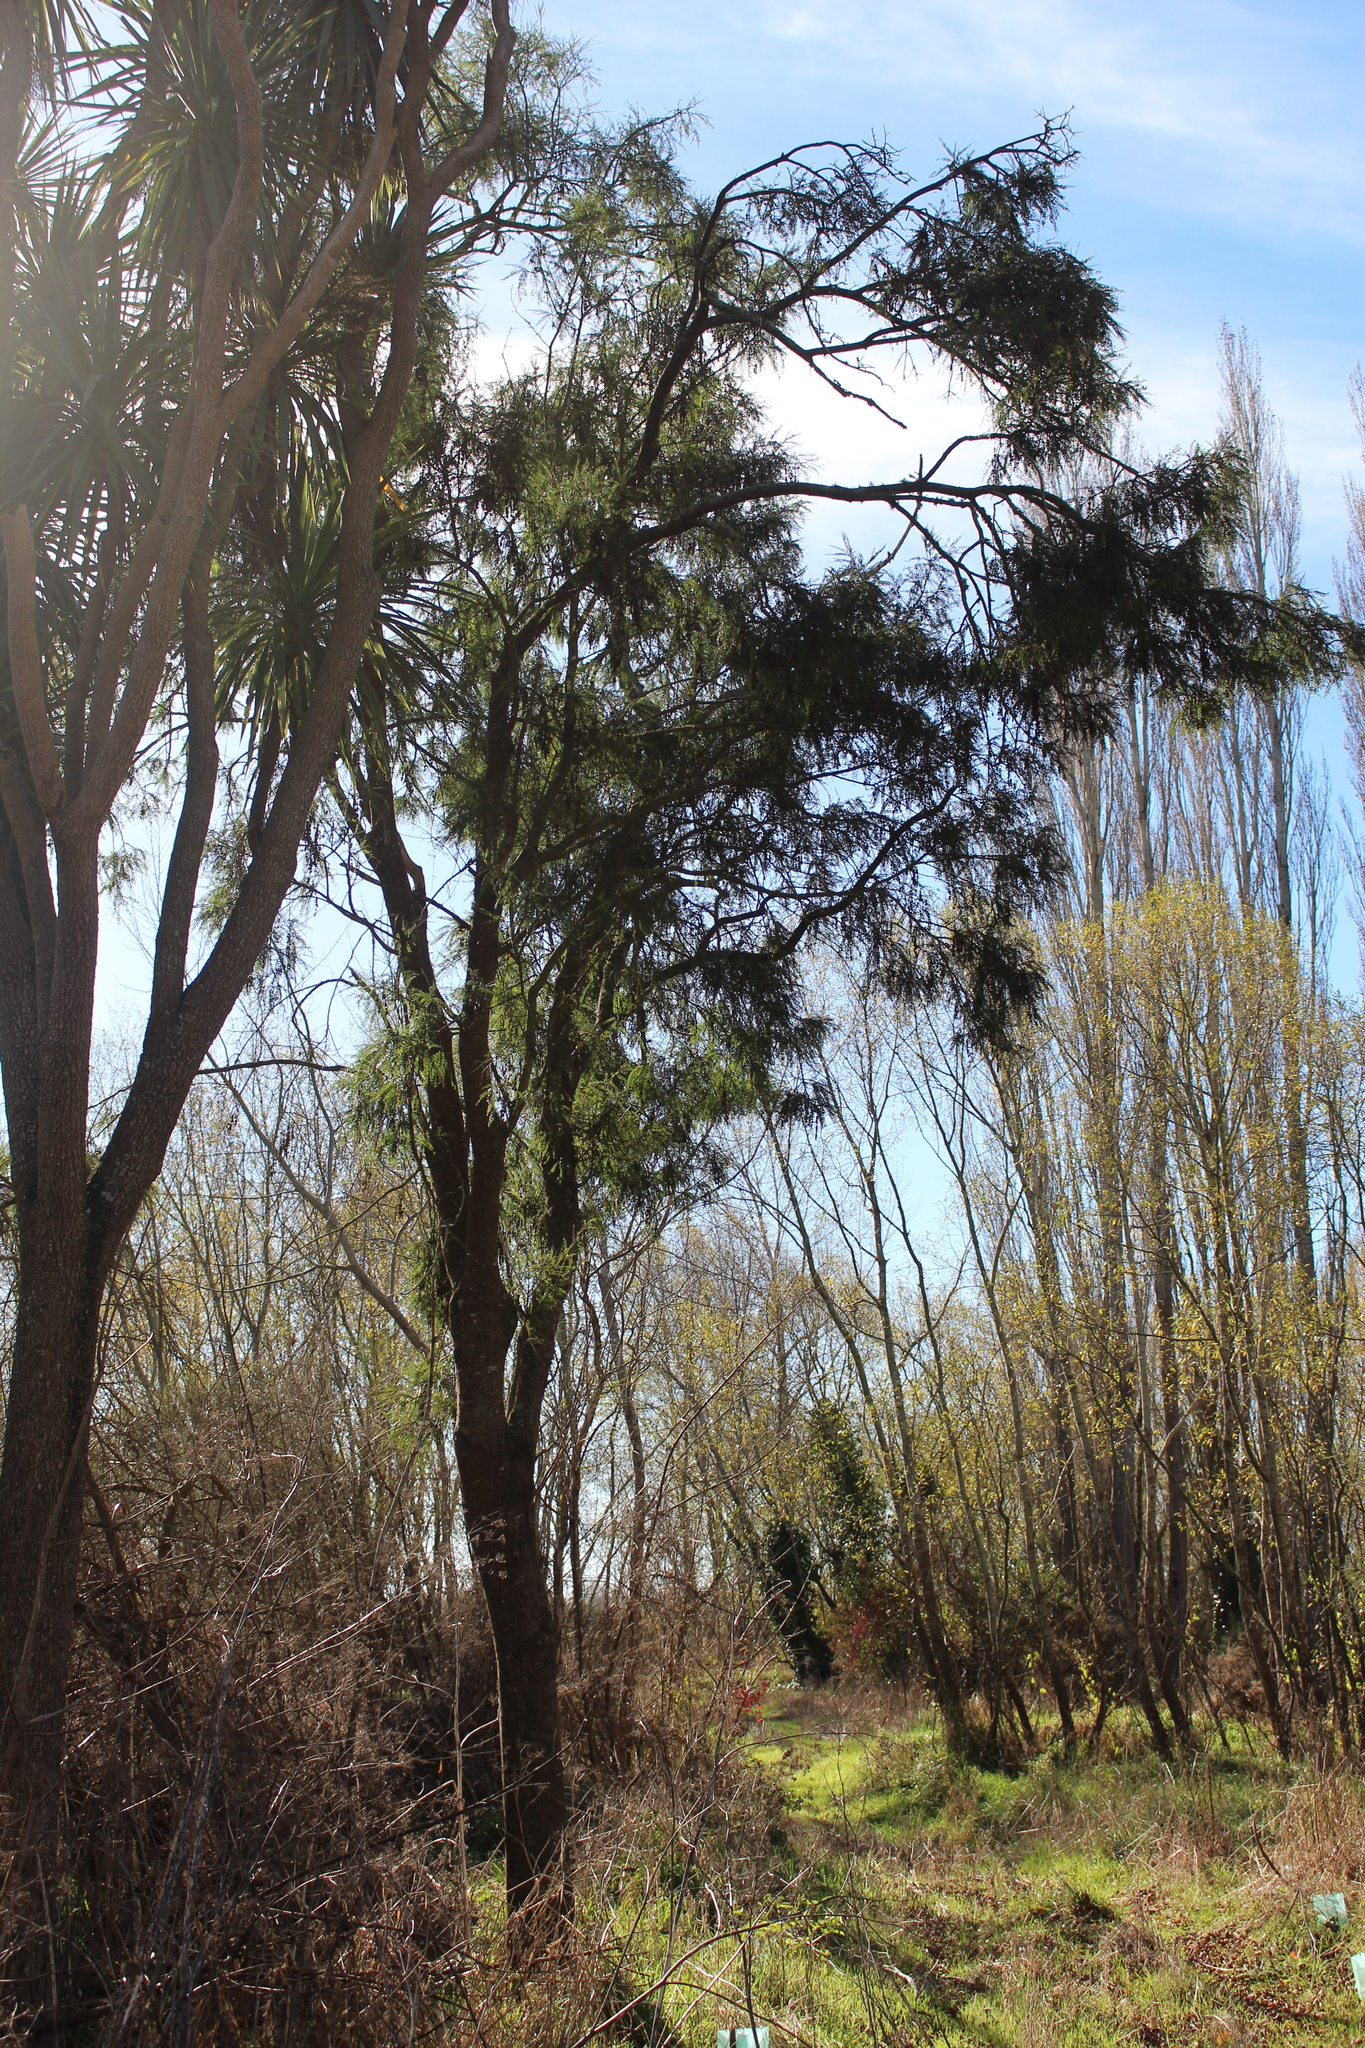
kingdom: Plantae
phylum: Tracheophyta
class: Magnoliopsida
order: Fabales
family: Fabaceae
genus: Sophora
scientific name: Sophora microphylla
